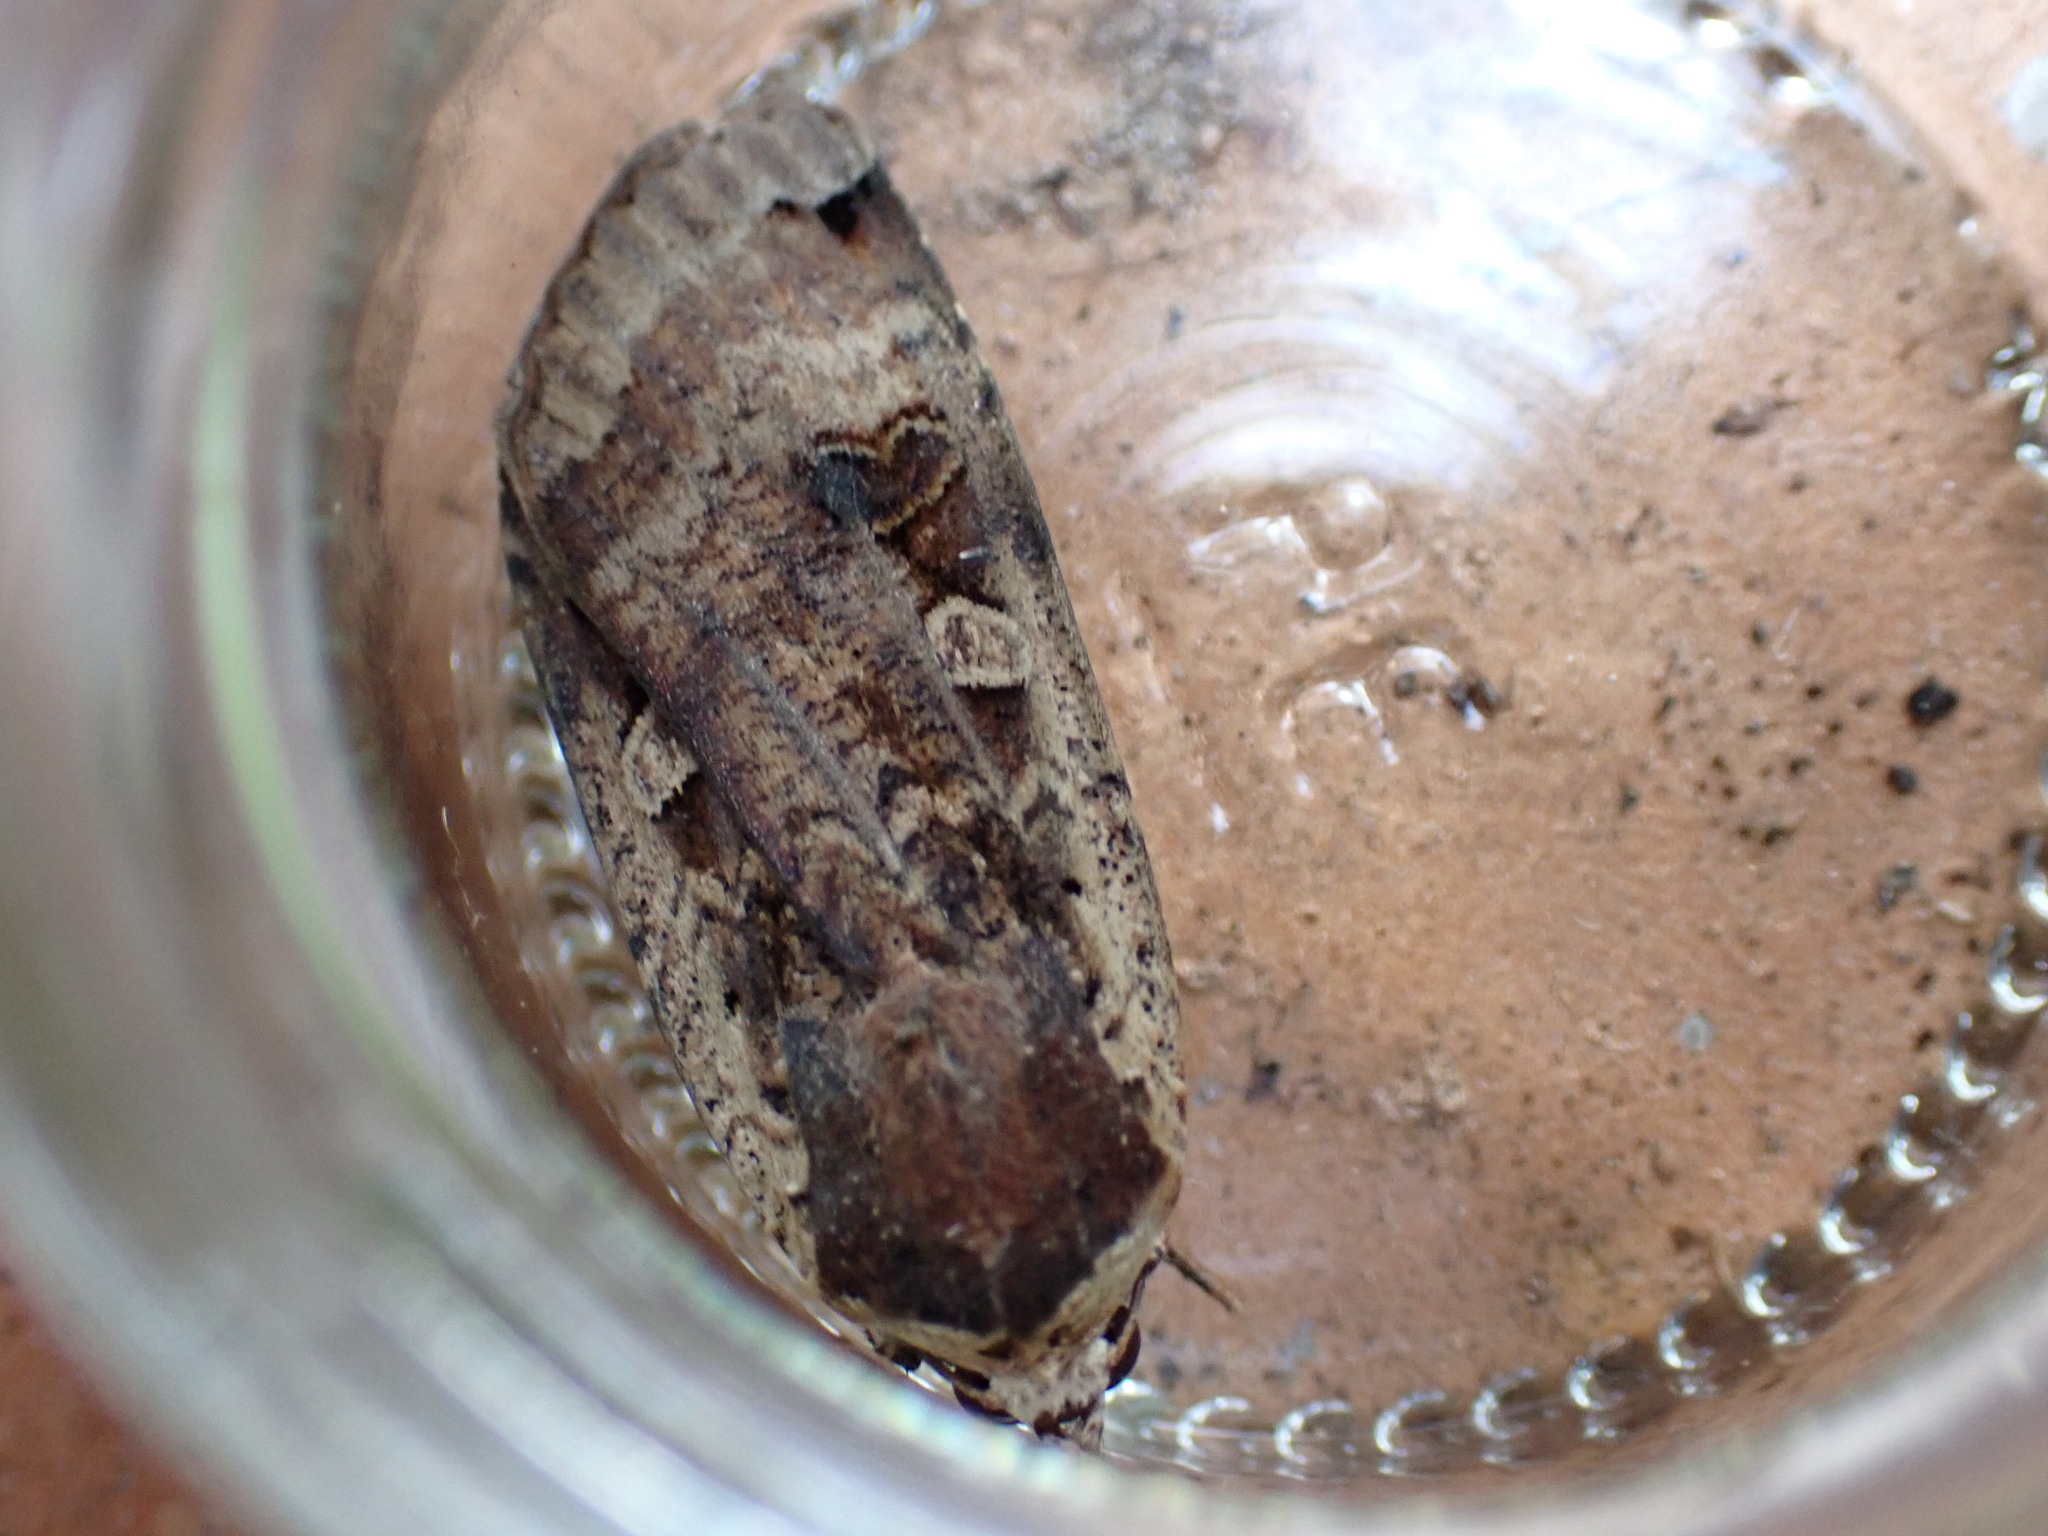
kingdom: Animalia
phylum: Arthropoda
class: Insecta
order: Lepidoptera
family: Noctuidae
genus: Noctua
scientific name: Noctua pronuba
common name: Large yellow underwing
